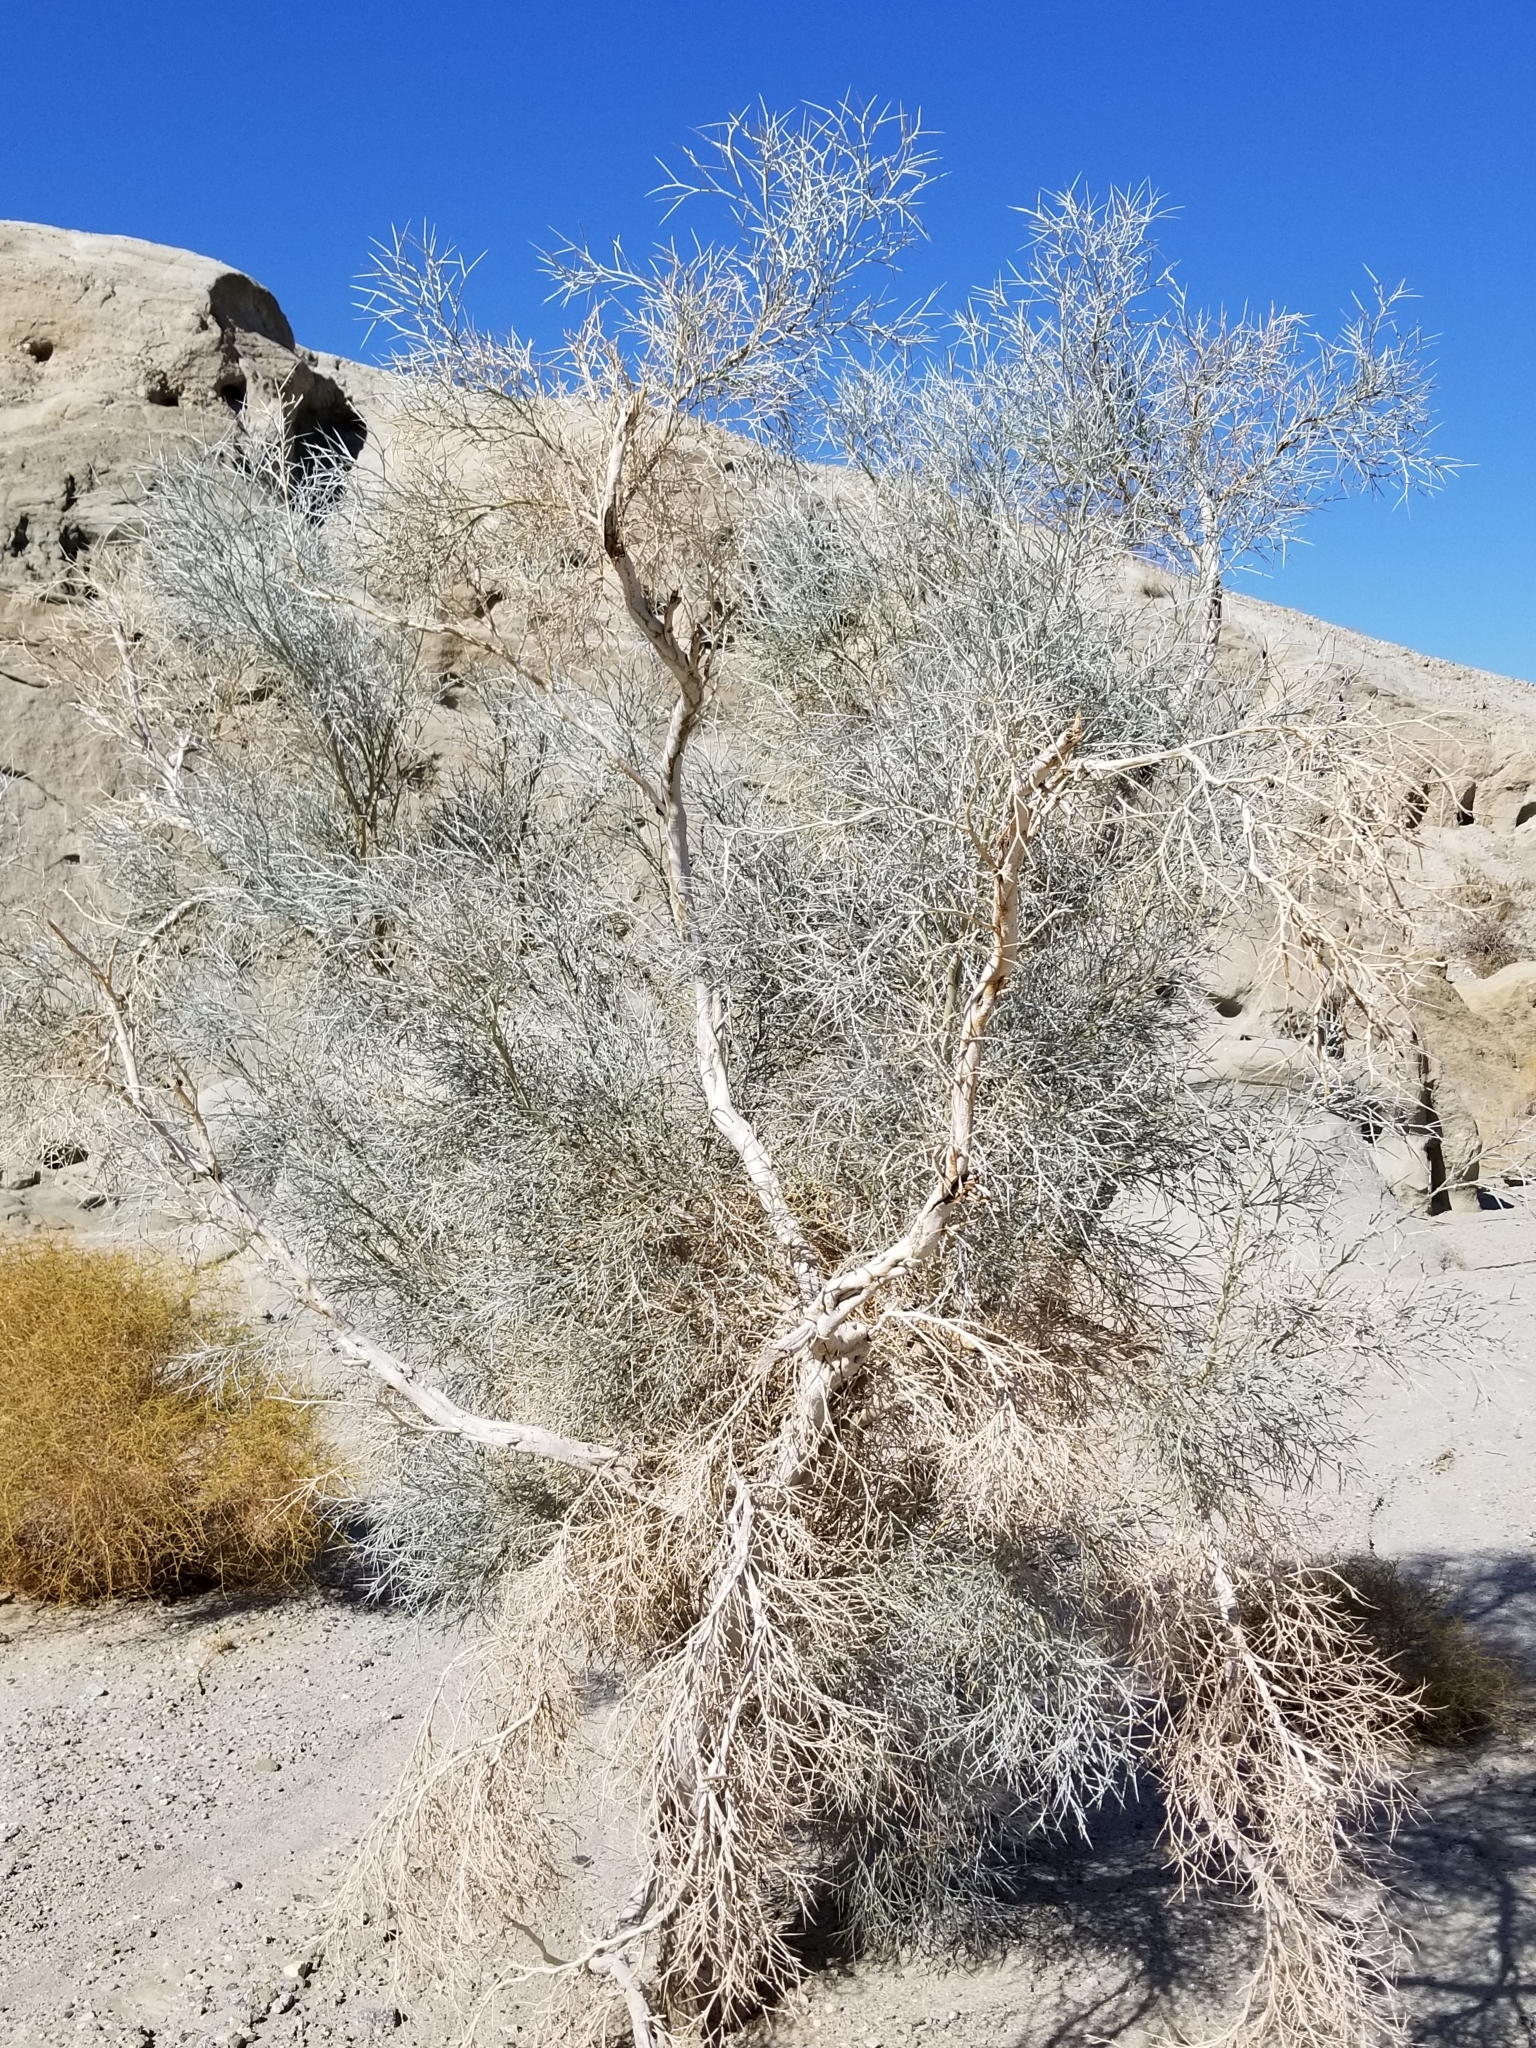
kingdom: Plantae
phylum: Tracheophyta
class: Magnoliopsida
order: Fabales
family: Fabaceae
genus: Psorothamnus
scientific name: Psorothamnus spinosus
